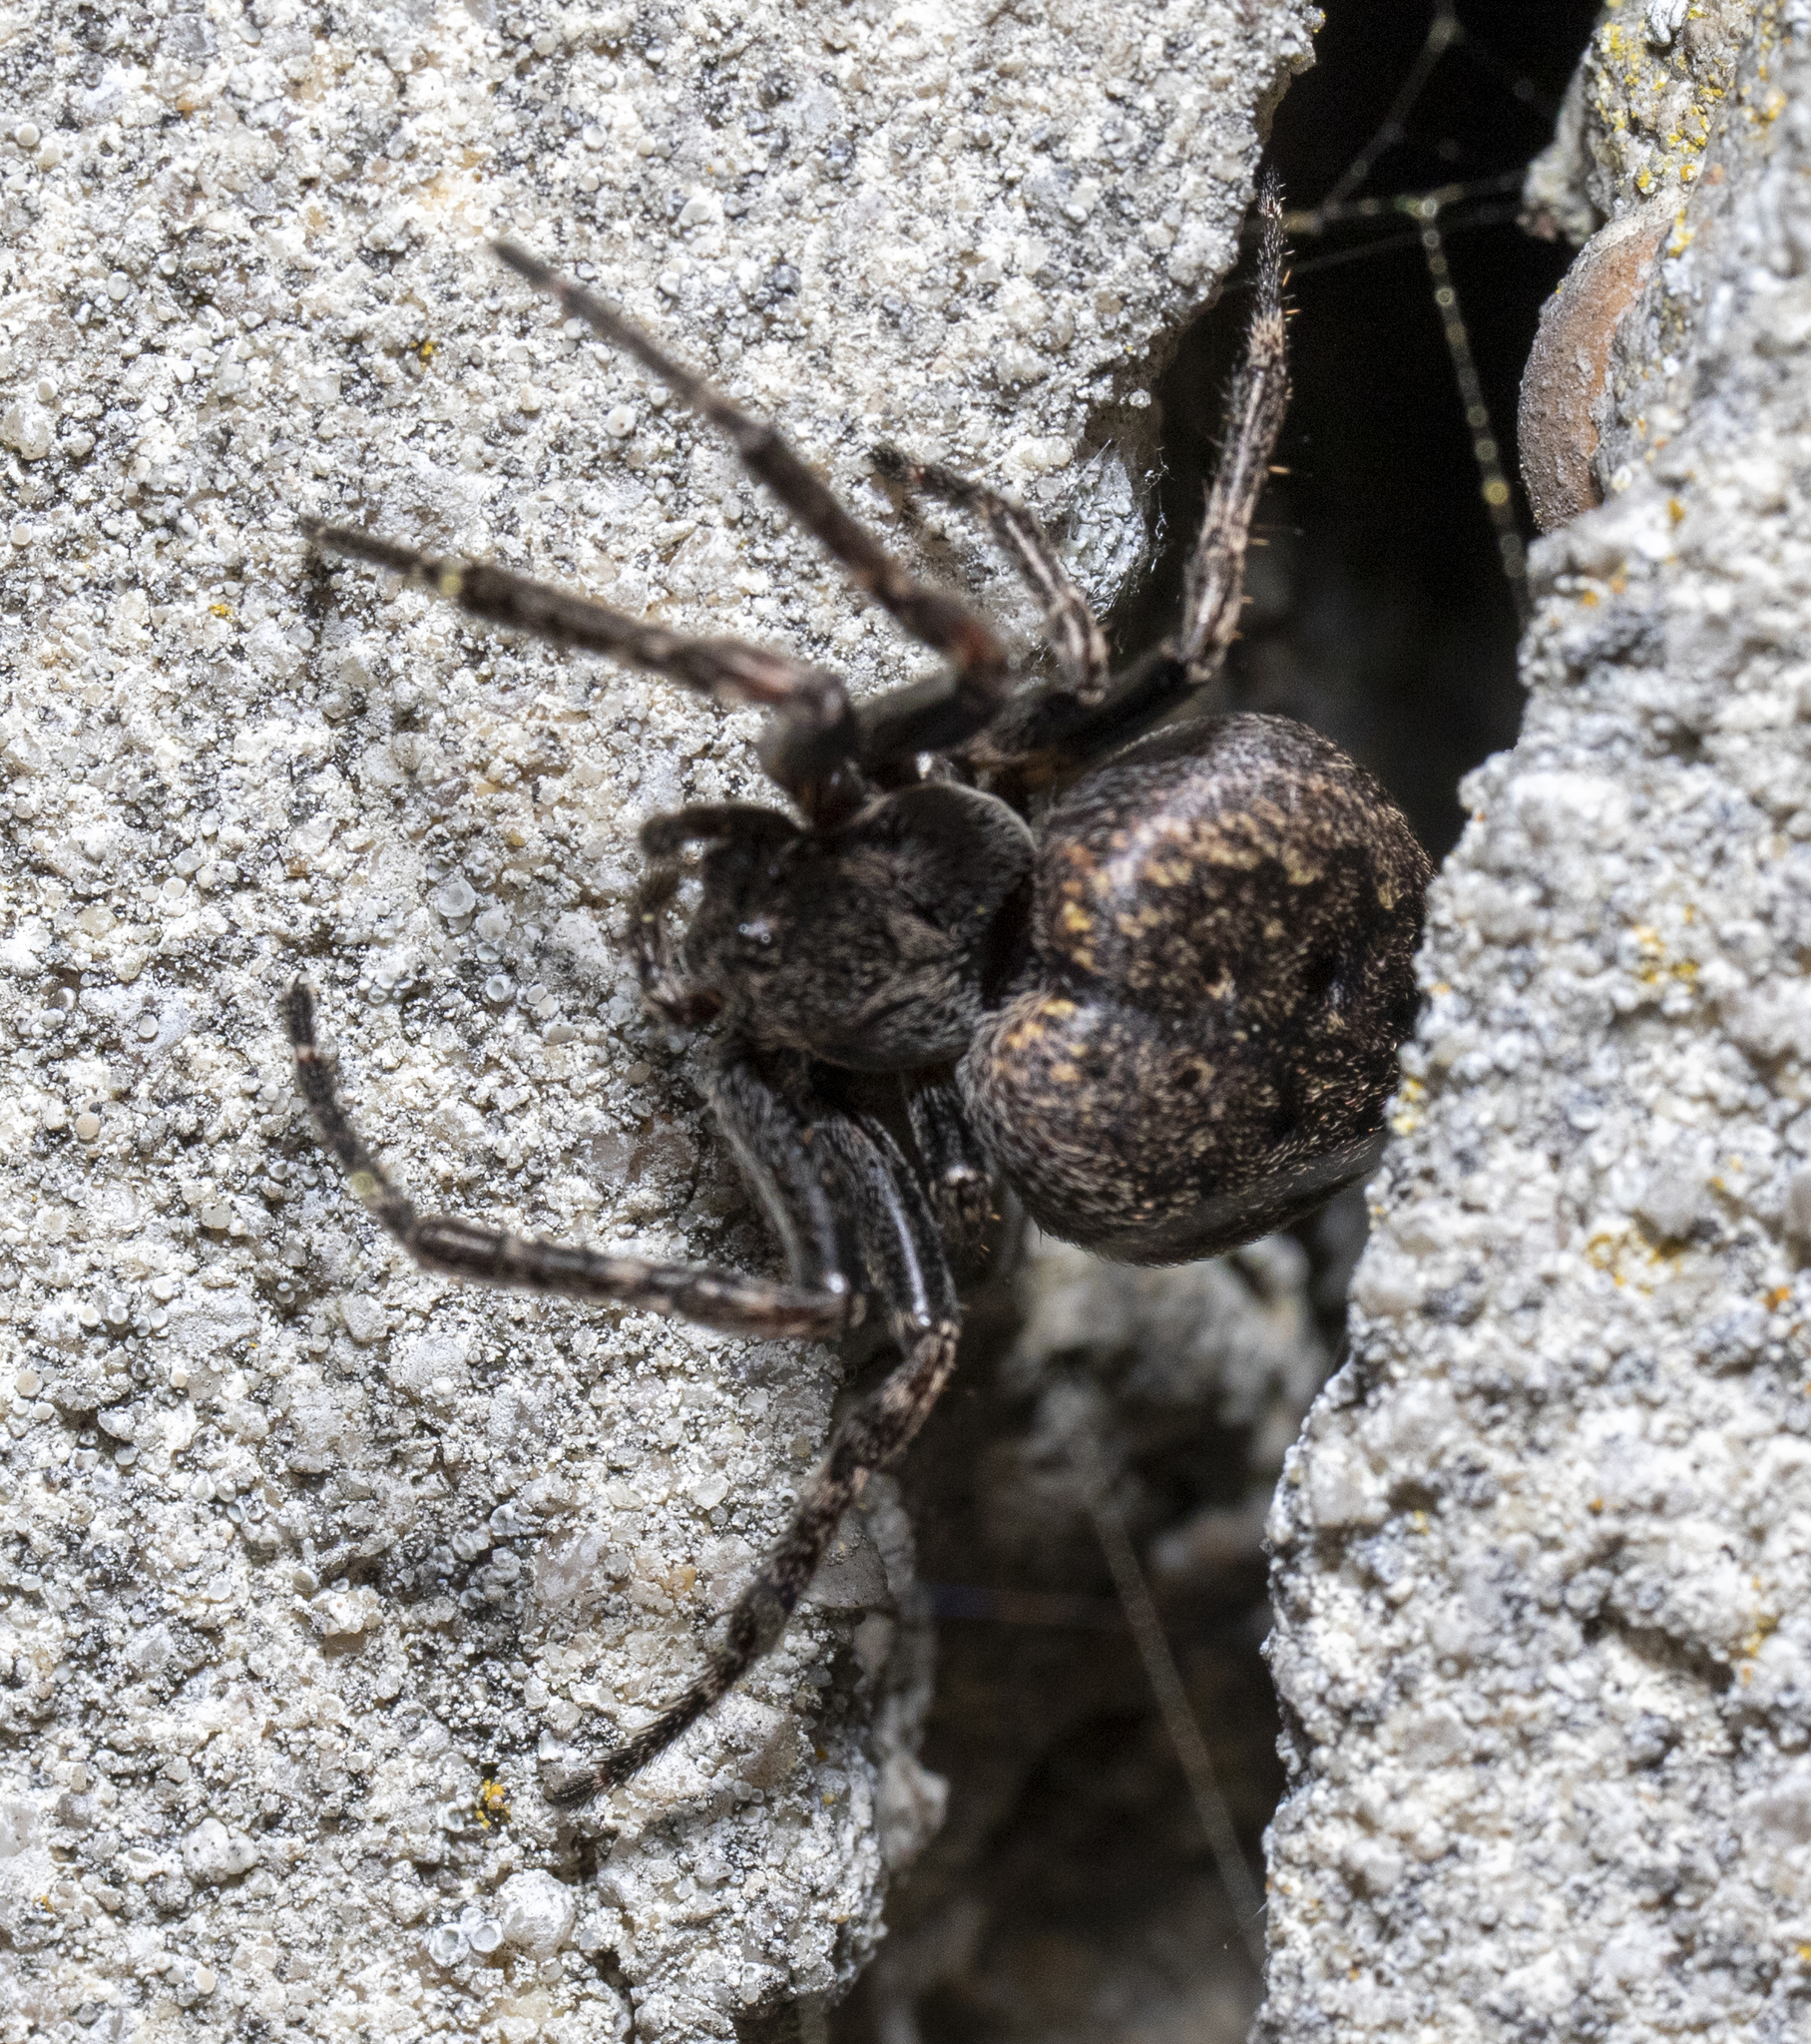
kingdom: Animalia
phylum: Arthropoda
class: Arachnida
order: Araneae
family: Araneidae
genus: Nuctenea
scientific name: Nuctenea umbratica
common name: Toad spider
